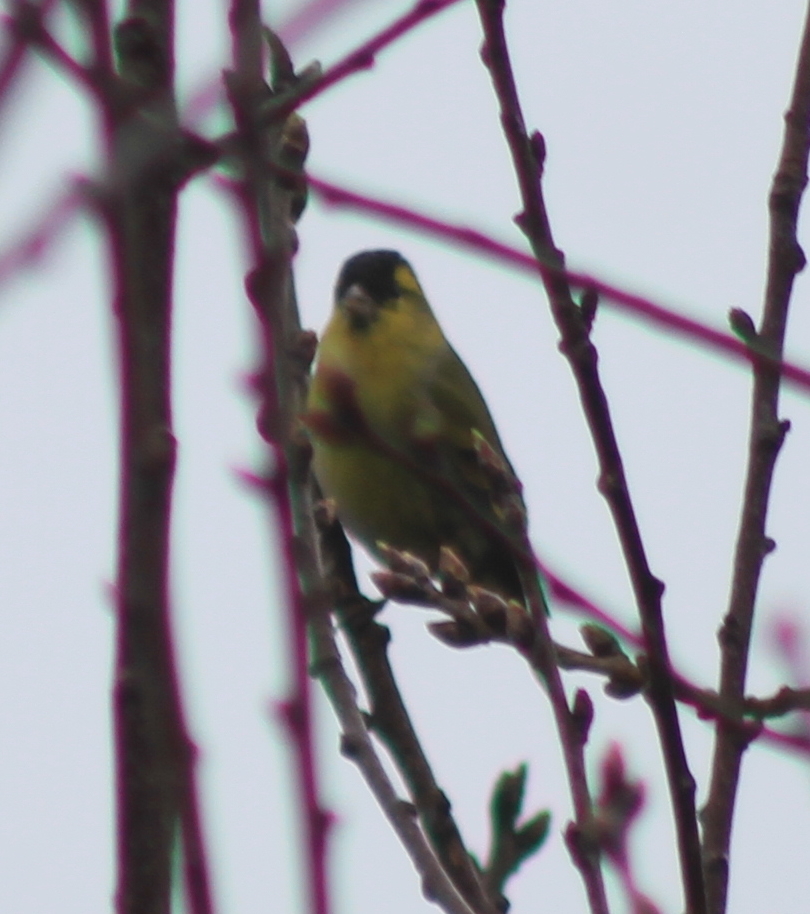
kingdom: Animalia
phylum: Chordata
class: Aves
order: Passeriformes
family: Fringillidae
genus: Spinus
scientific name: Spinus spinus
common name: Eurasian siskin
